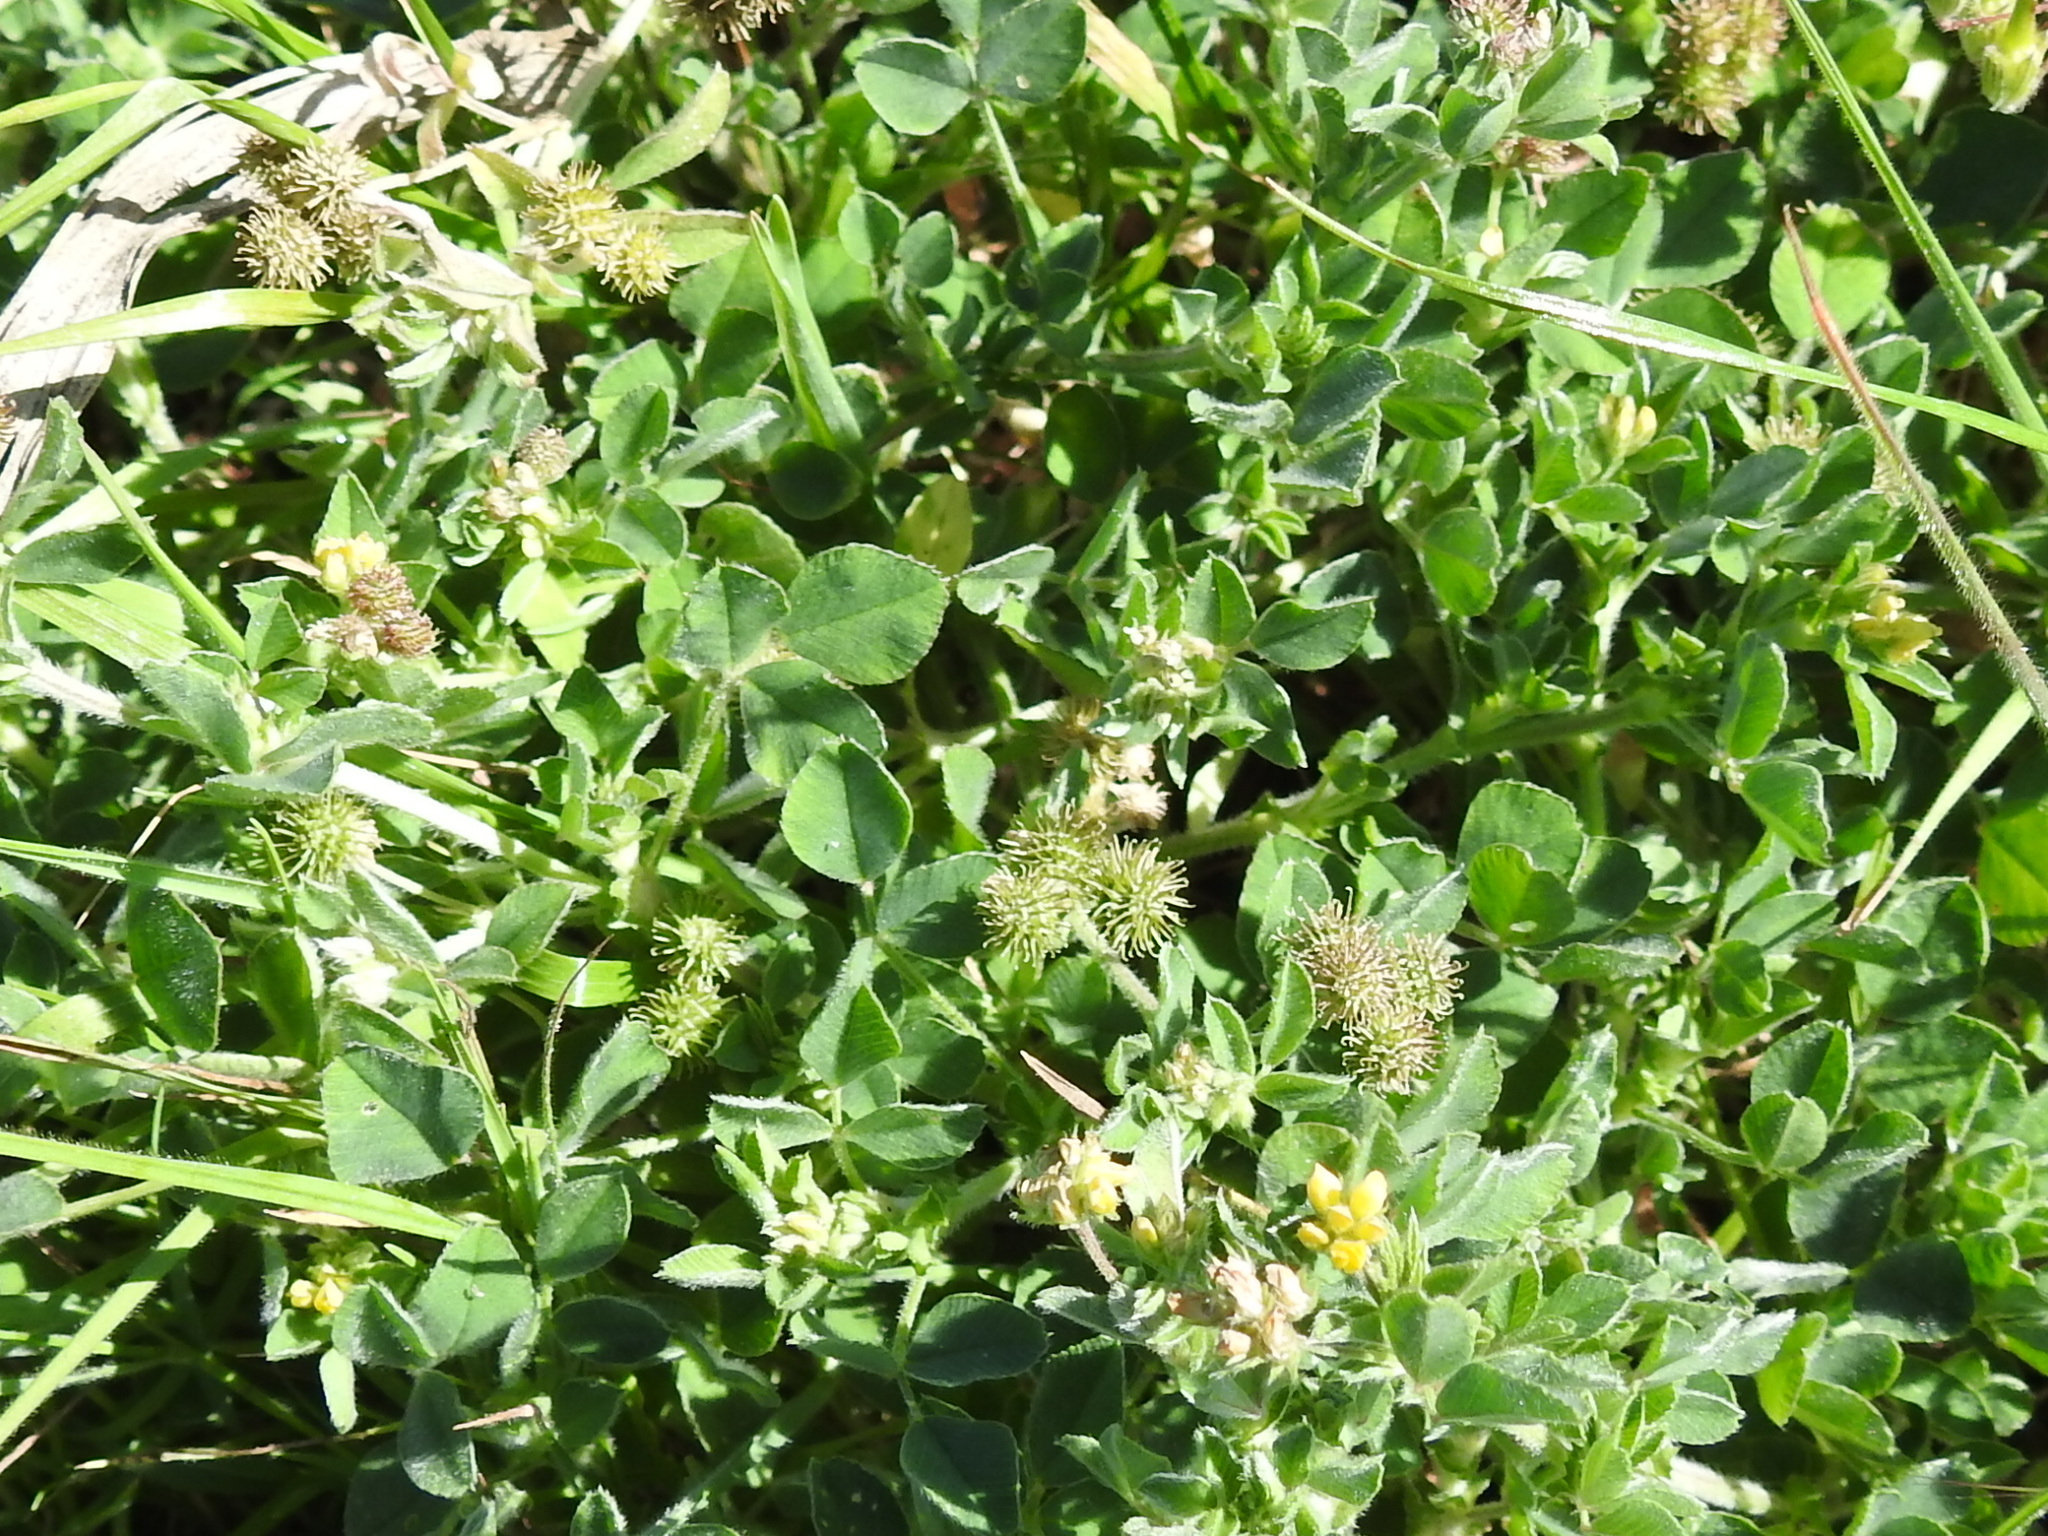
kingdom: Plantae
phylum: Tracheophyta
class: Magnoliopsida
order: Fabales
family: Fabaceae
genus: Medicago
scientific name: Medicago minima
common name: Little bur-clover
